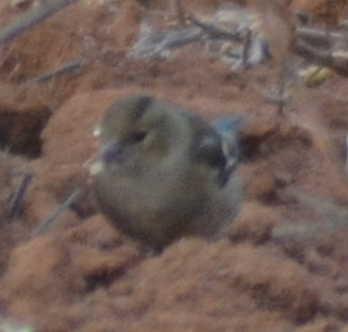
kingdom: Animalia
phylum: Chordata
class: Aves
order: Passeriformes
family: Fringillidae
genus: Fringilla
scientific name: Fringilla coelebs
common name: Common chaffinch
